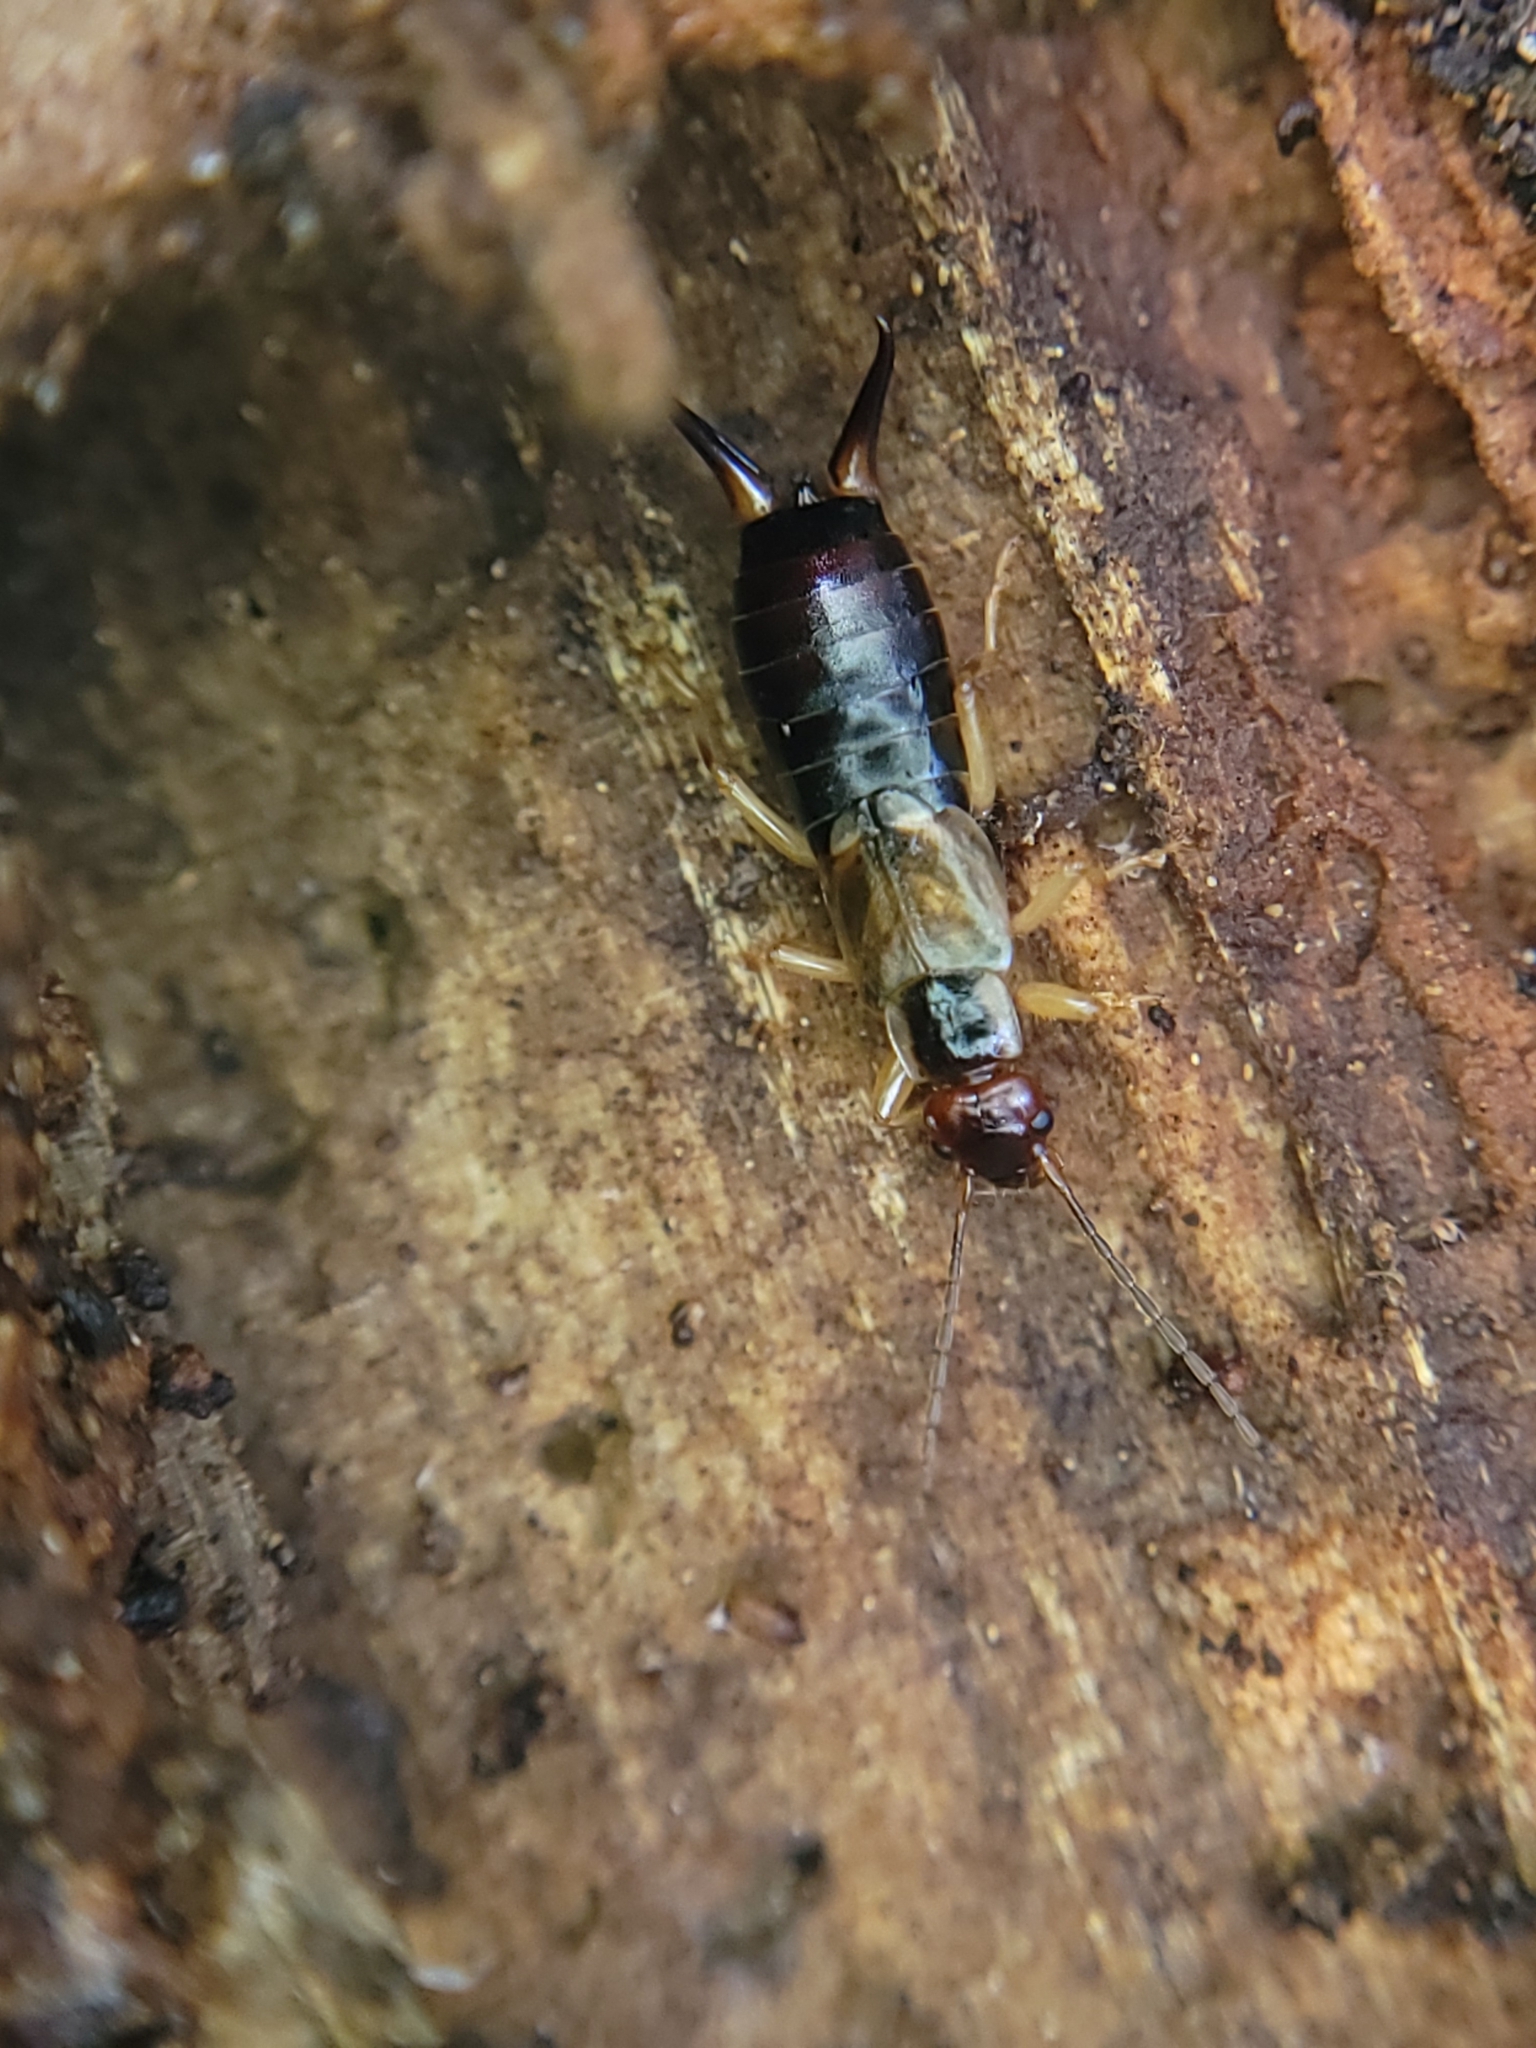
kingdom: Animalia
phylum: Arthropoda
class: Insecta
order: Dermaptera
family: Forficulidae
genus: Forficula
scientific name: Forficula dentata
